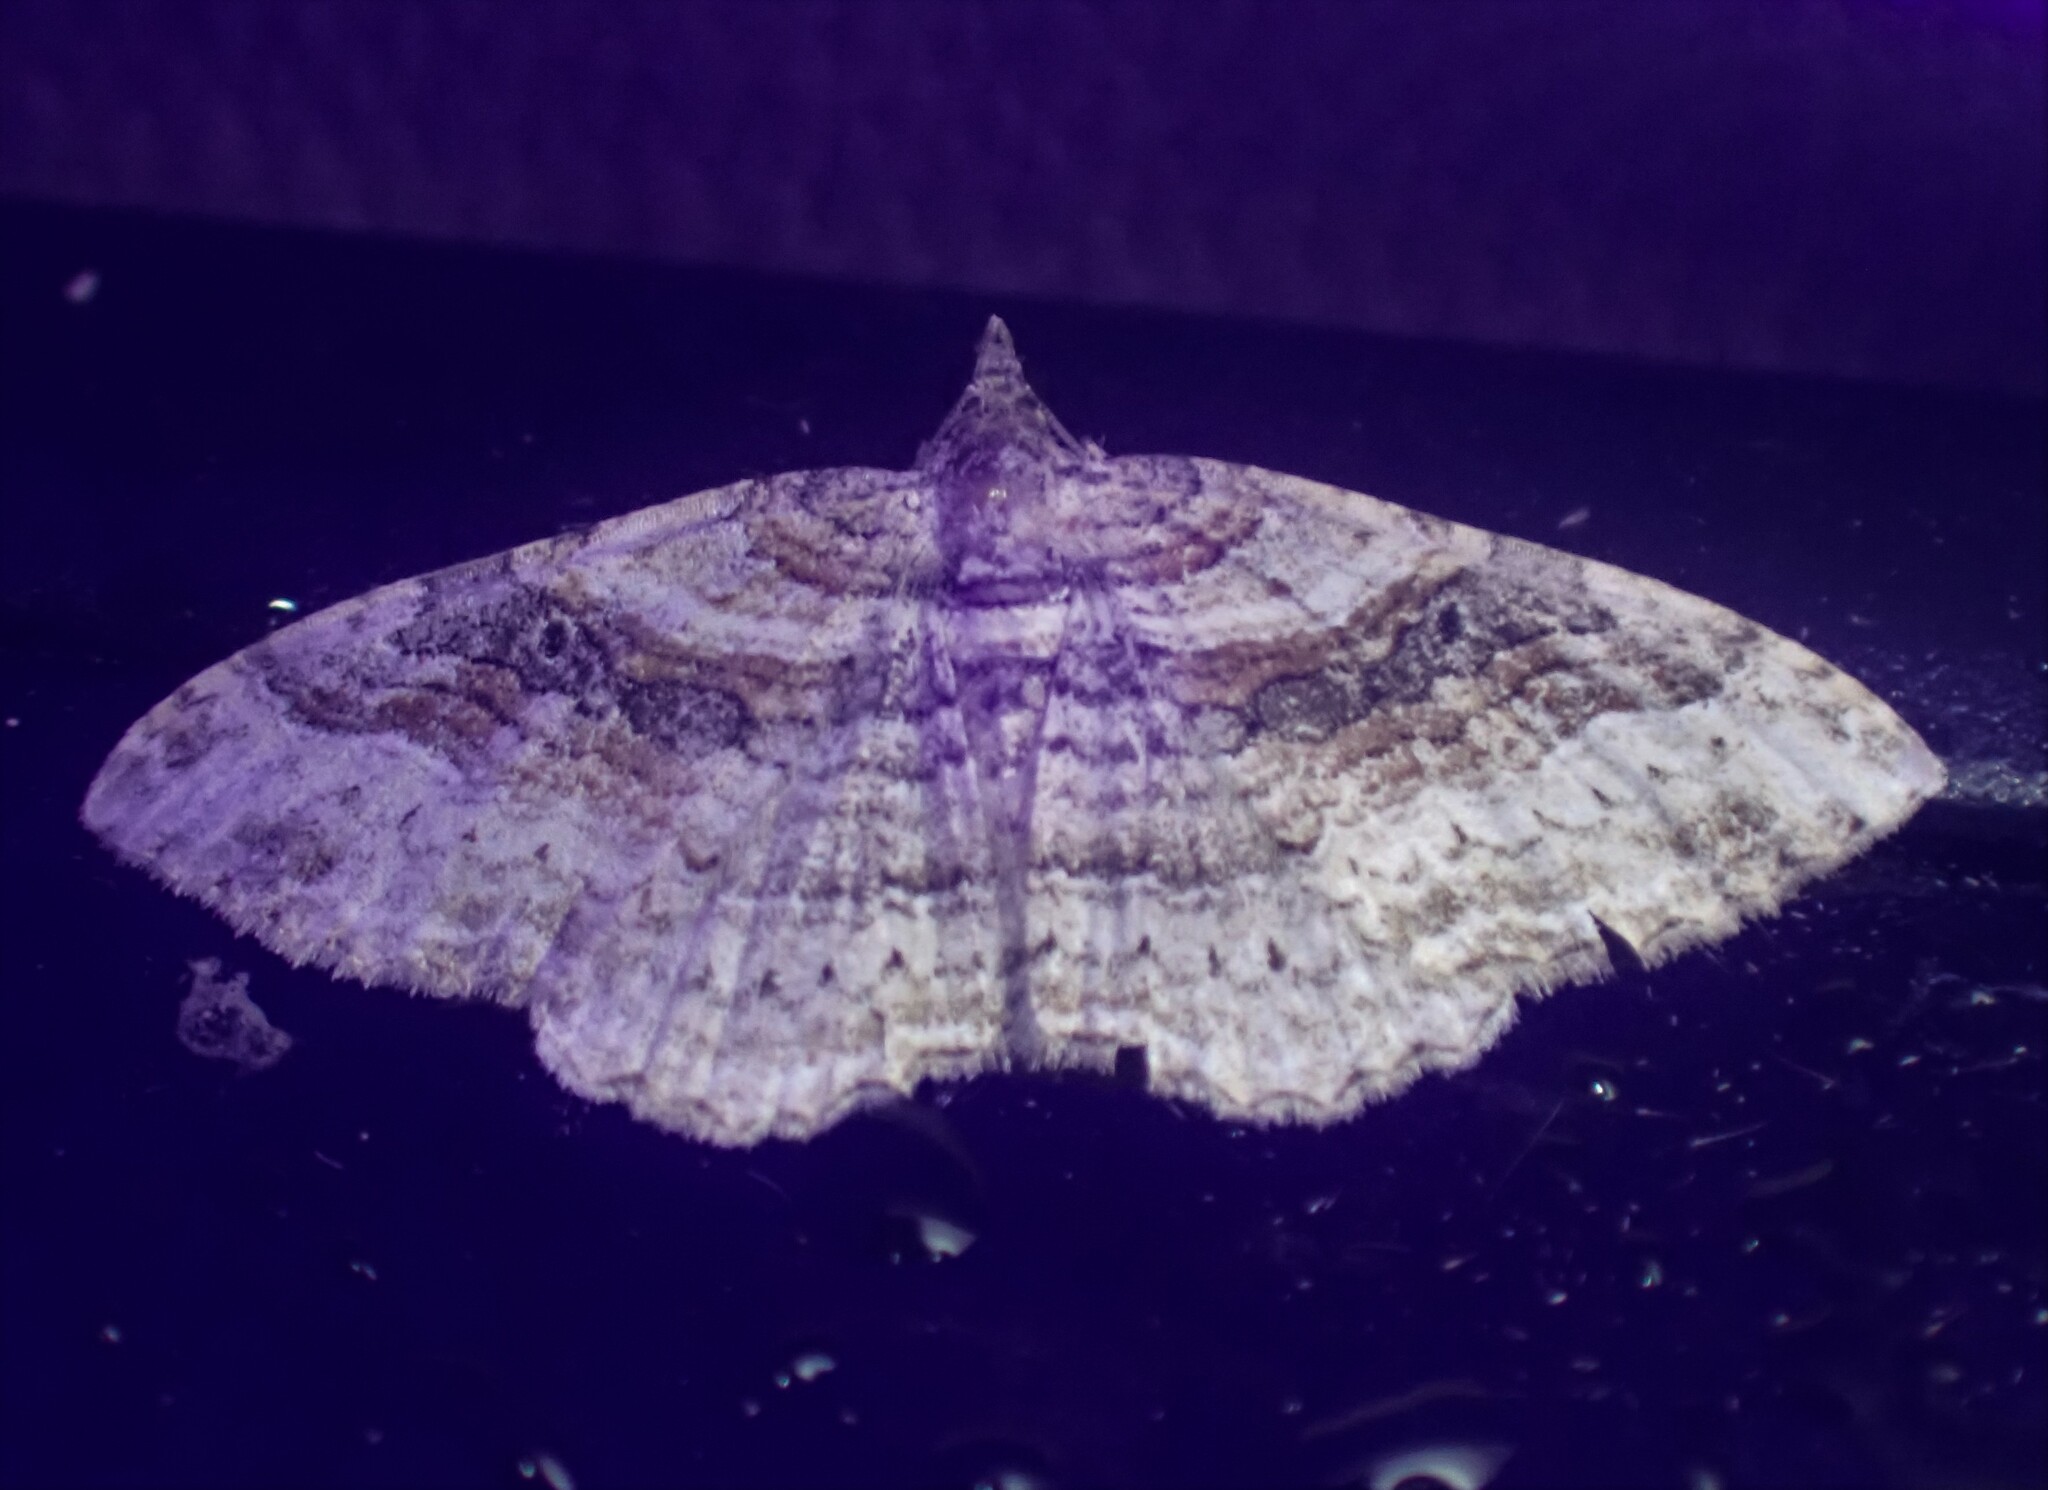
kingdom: Animalia
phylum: Arthropoda
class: Insecta
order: Lepidoptera
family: Geometridae
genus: Costaconvexa
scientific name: Costaconvexa centrostrigaria
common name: Bent-line carpet
